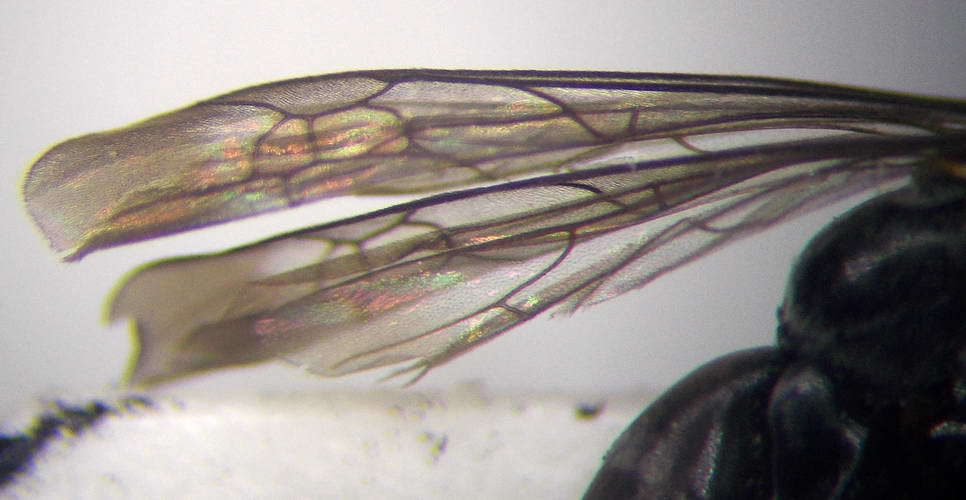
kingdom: Animalia
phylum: Arthropoda
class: Insecta
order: Hymenoptera
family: Pompilidae
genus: Amblyellus
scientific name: Amblyellus hasdrubal
